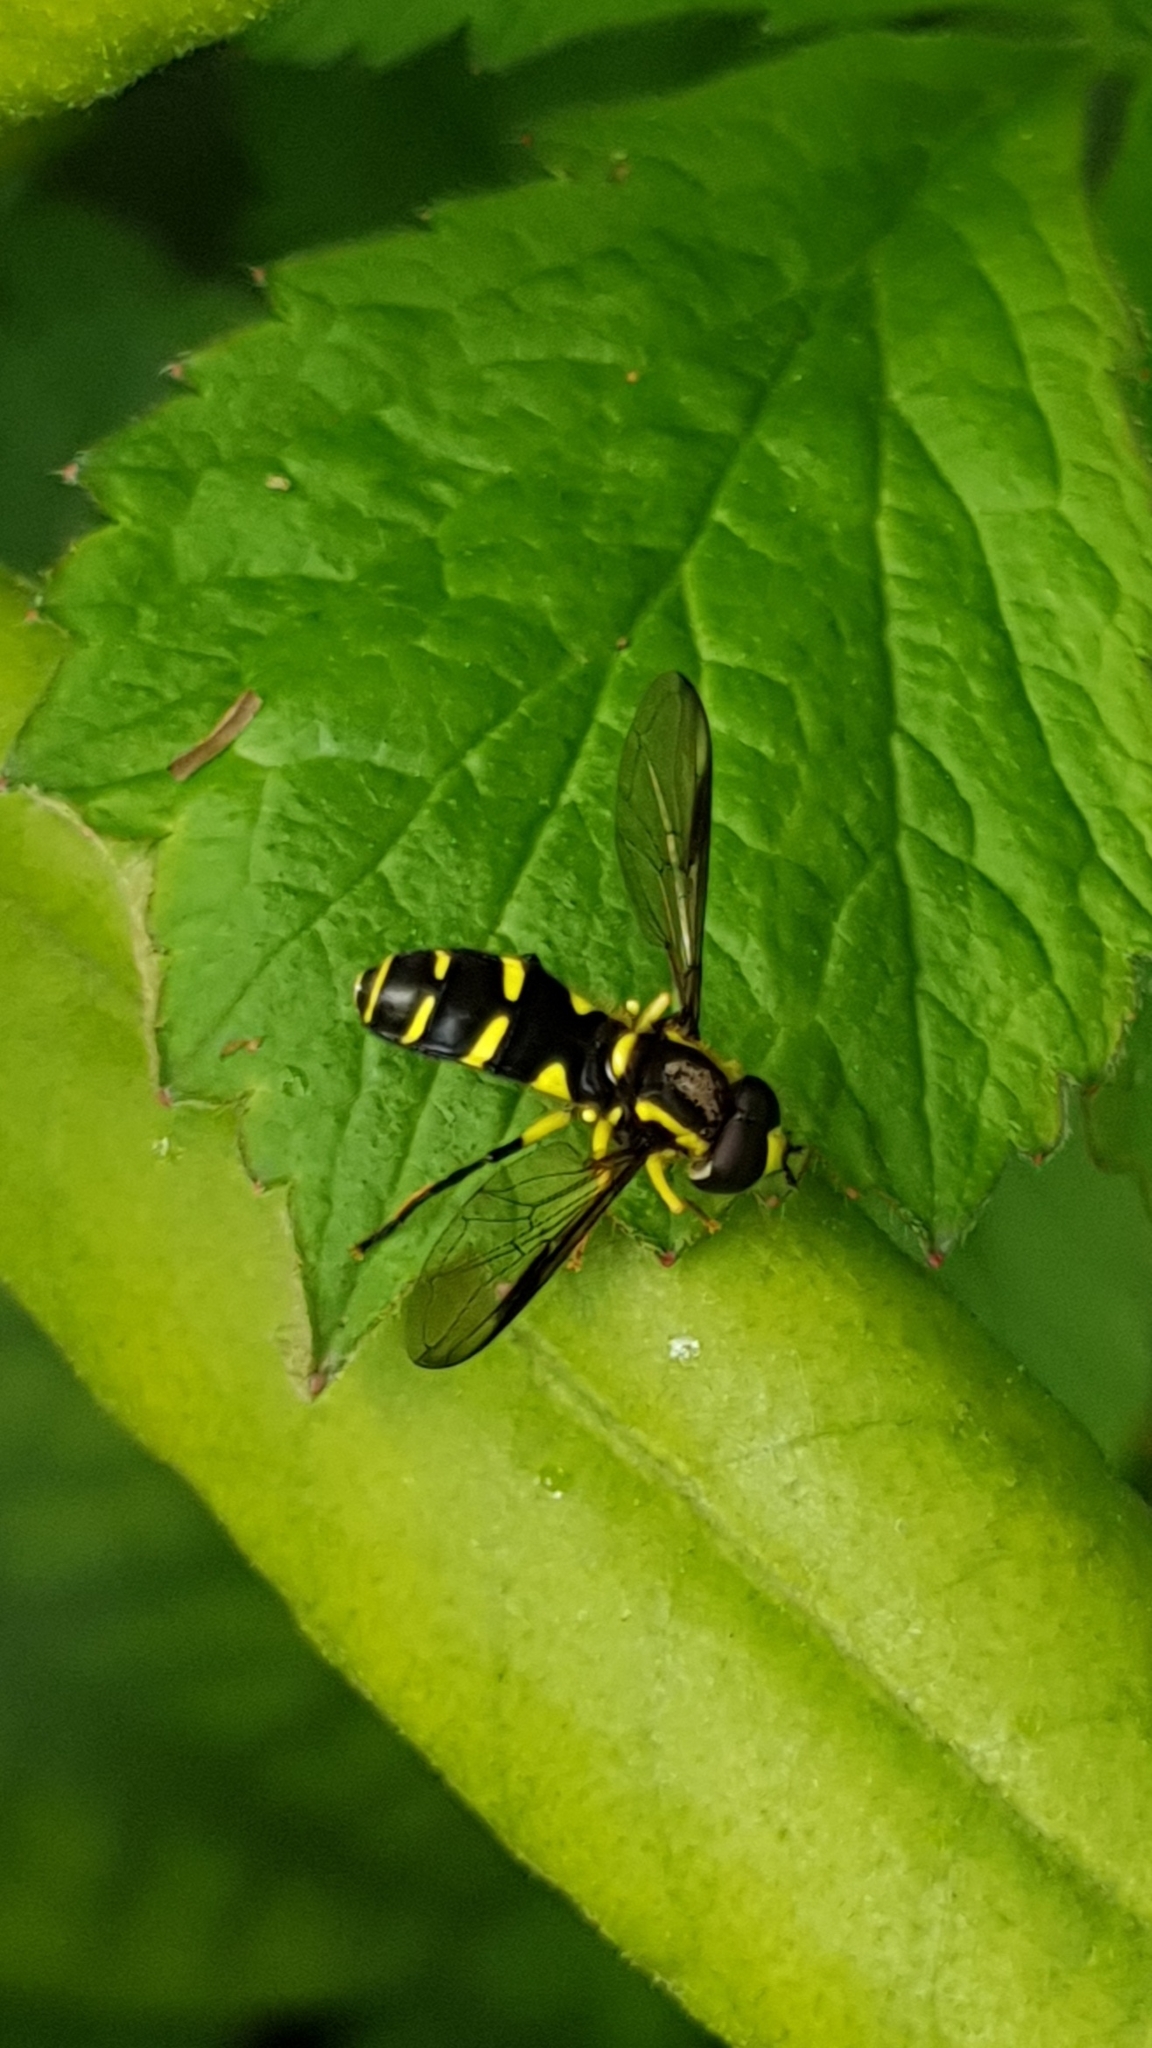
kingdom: Animalia
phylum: Arthropoda
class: Insecta
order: Diptera
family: Syrphidae
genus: Philhelius
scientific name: Philhelius dives
